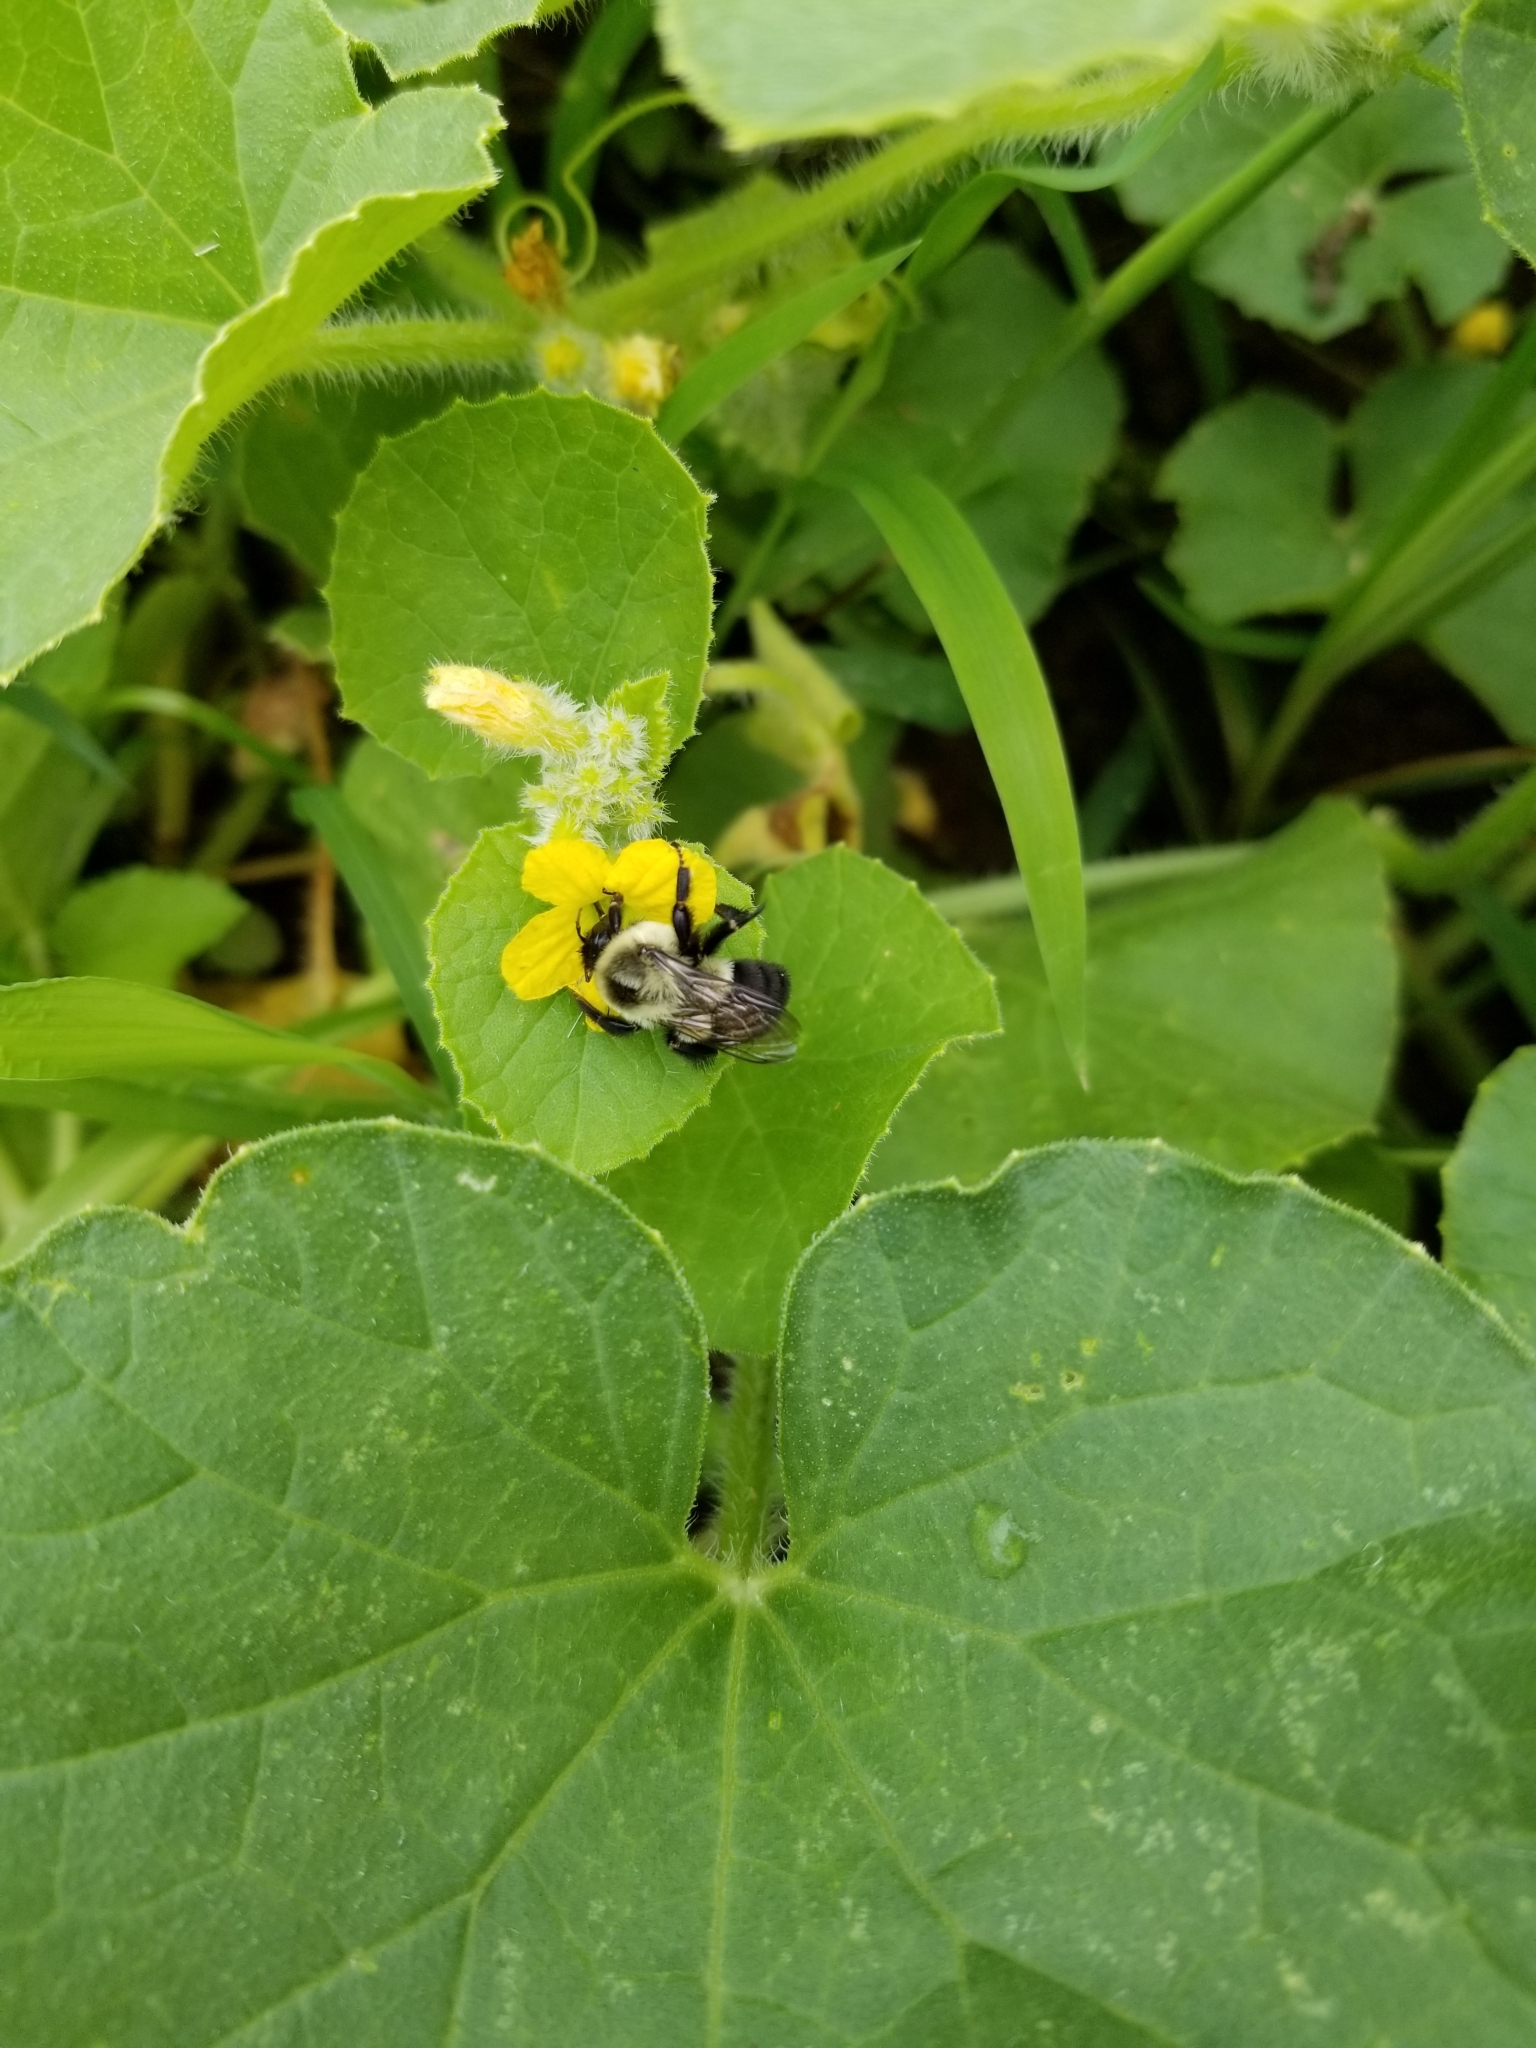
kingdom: Animalia
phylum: Arthropoda
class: Insecta
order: Hymenoptera
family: Apidae
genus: Bombus
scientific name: Bombus impatiens
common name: Common eastern bumble bee
